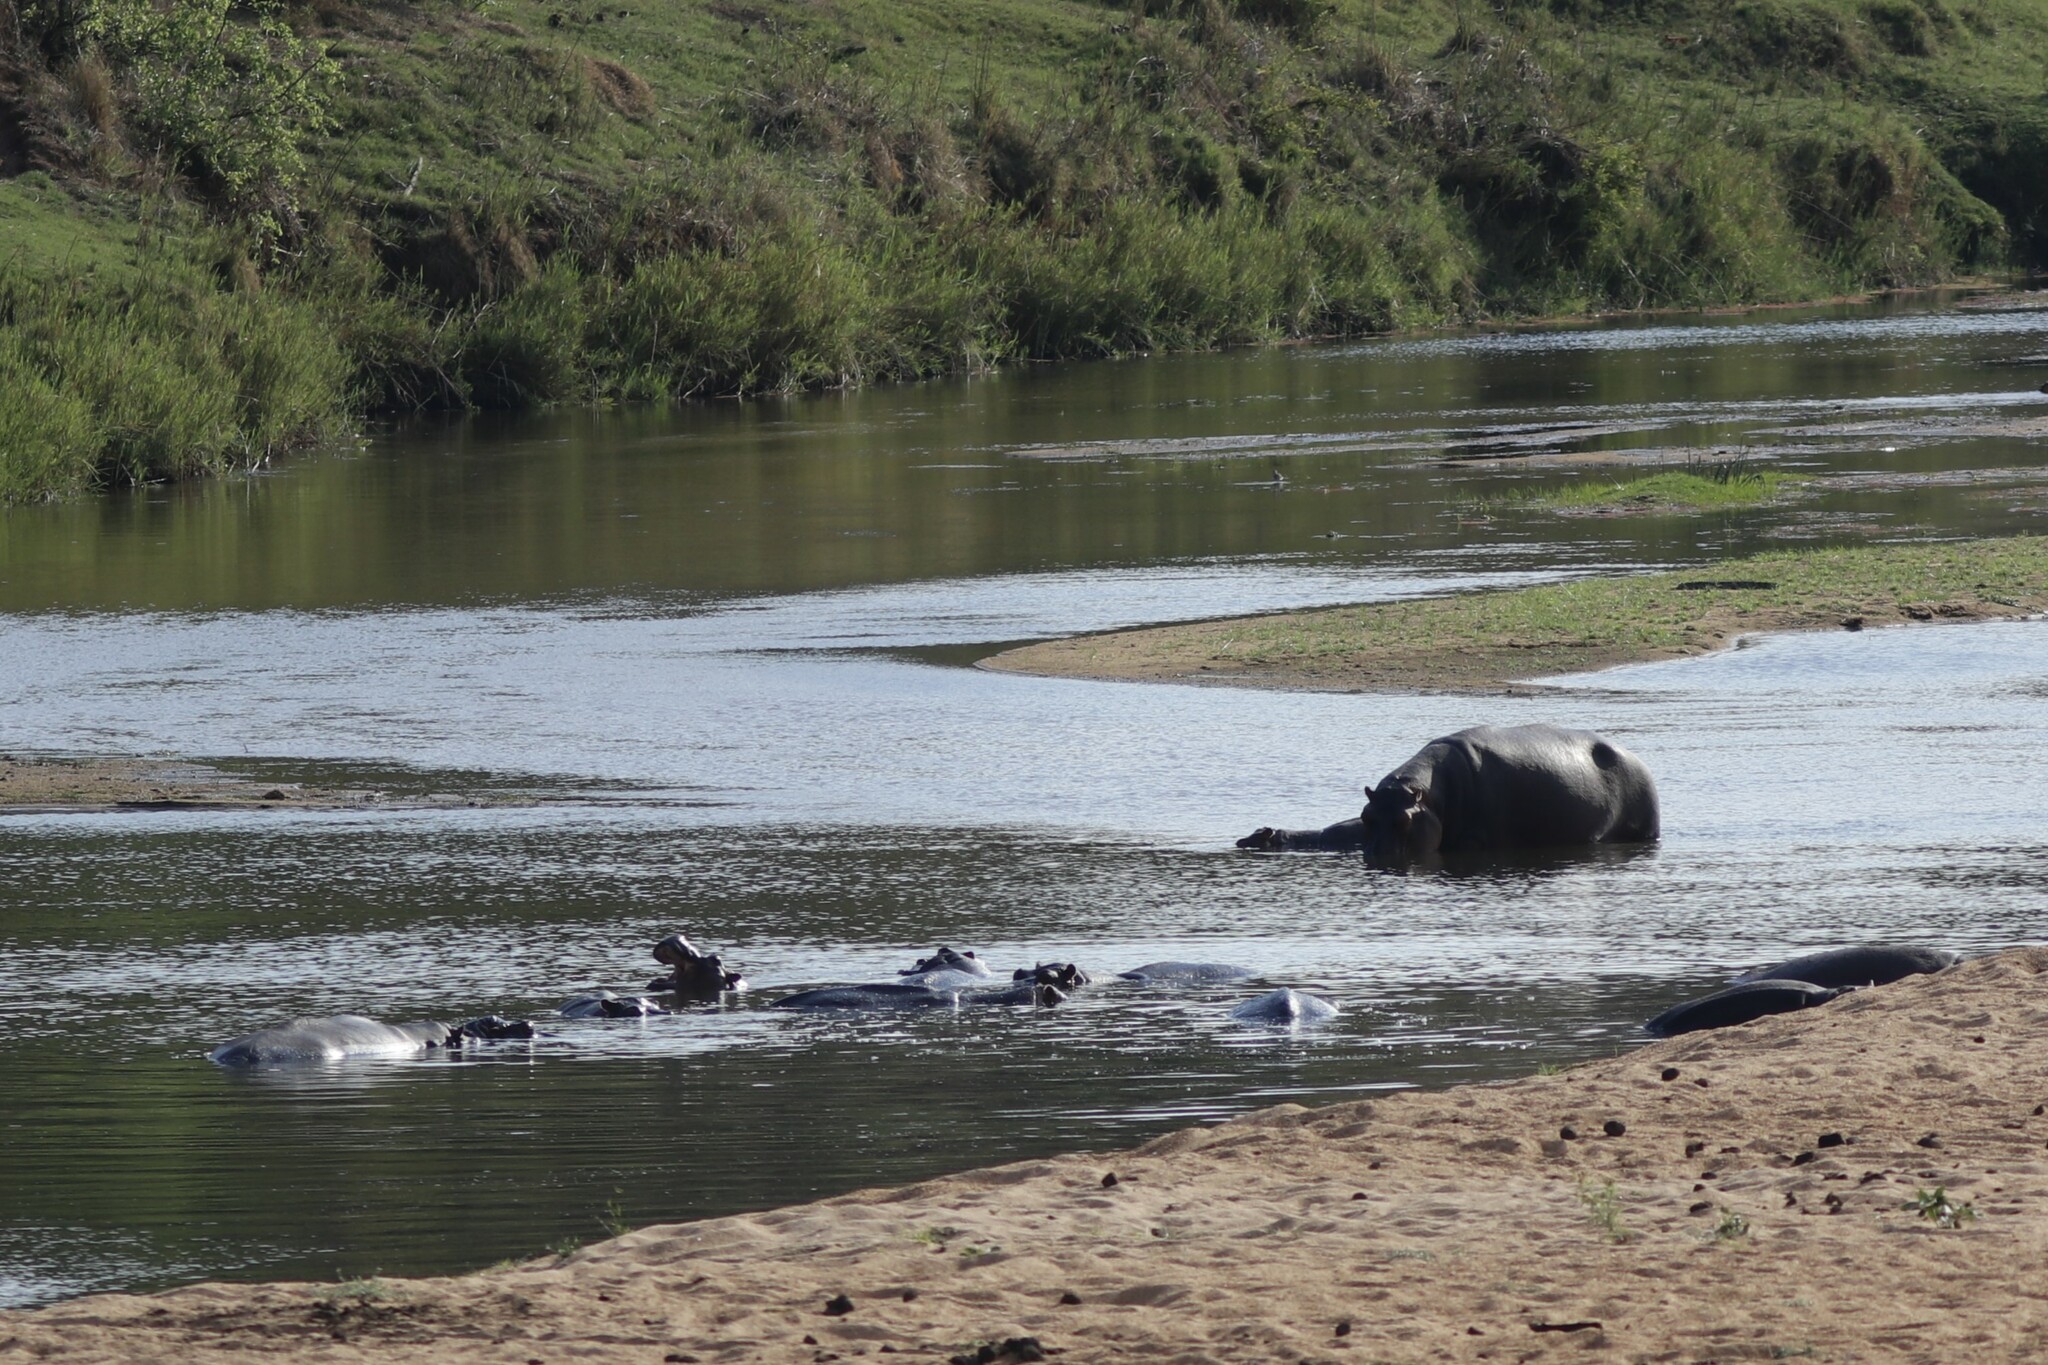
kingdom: Animalia
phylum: Chordata
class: Mammalia
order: Artiodactyla
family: Hippopotamidae
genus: Hippopotamus
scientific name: Hippopotamus amphibius
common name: Common hippopotamus
